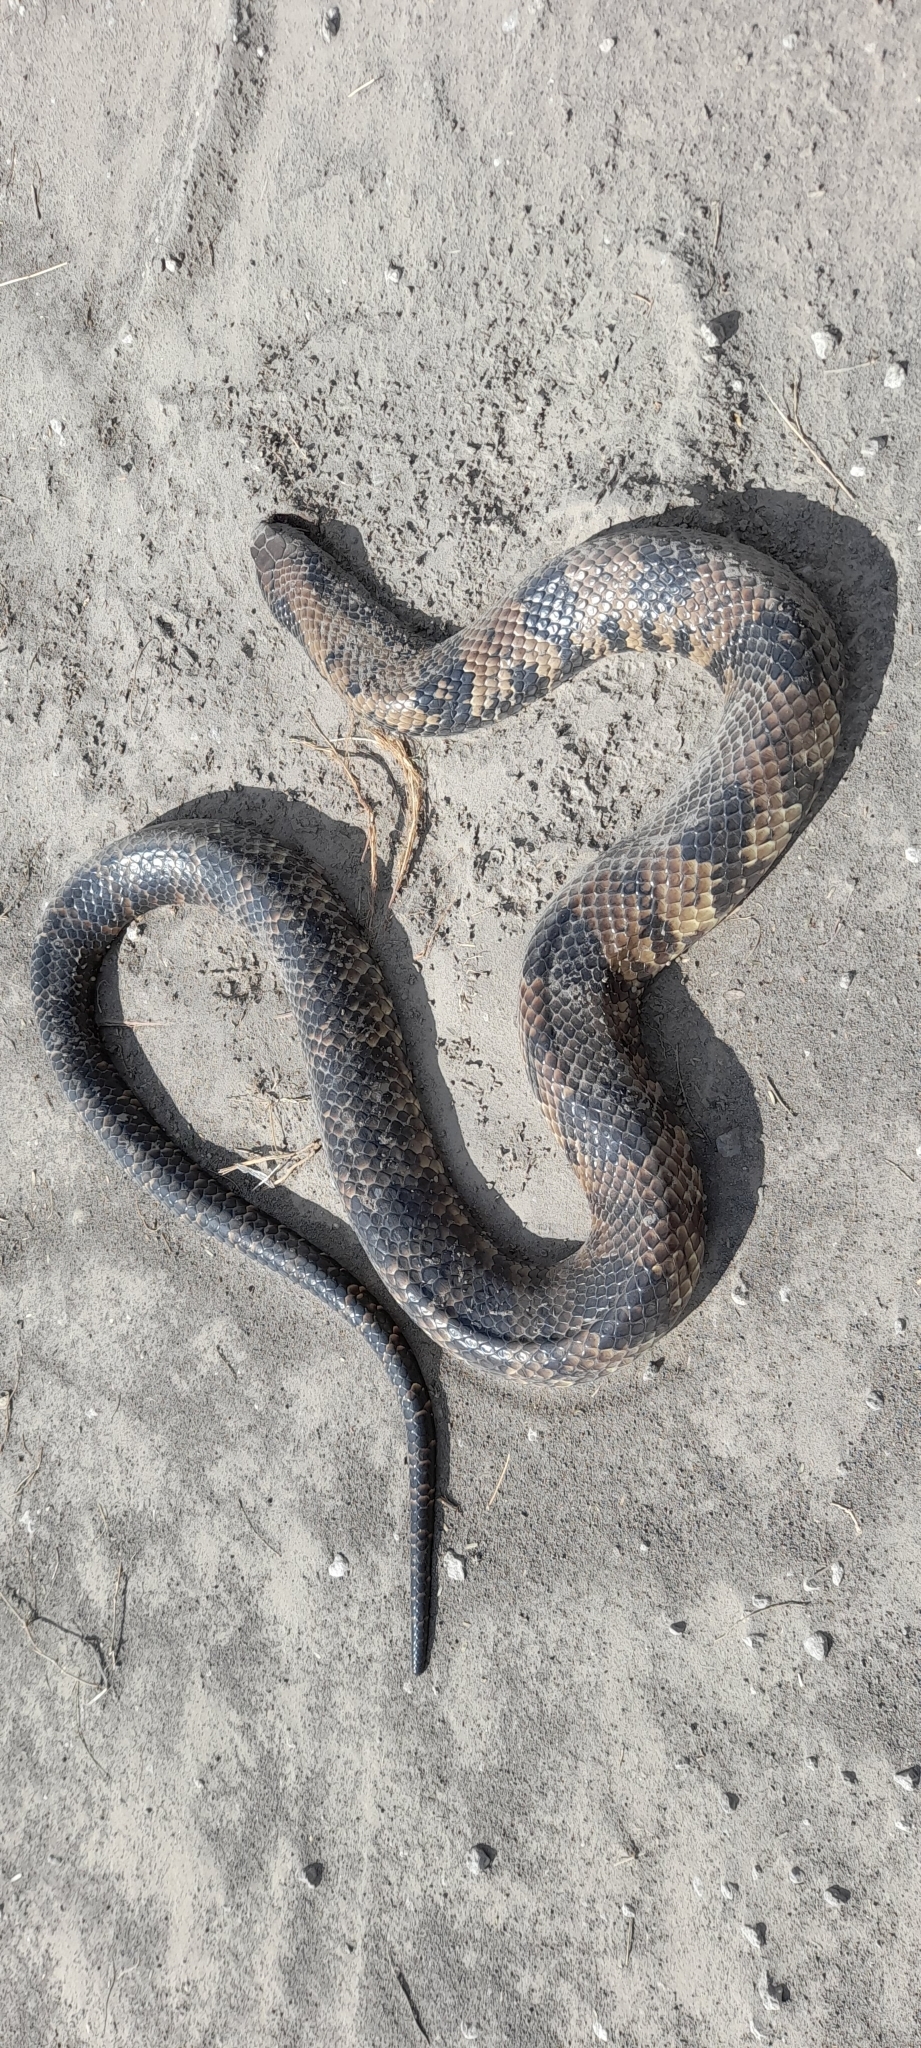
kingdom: Animalia
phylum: Chordata
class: Squamata
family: Colubridae
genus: Hydrodynastes
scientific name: Hydrodynastes gigas
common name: False water cobra
